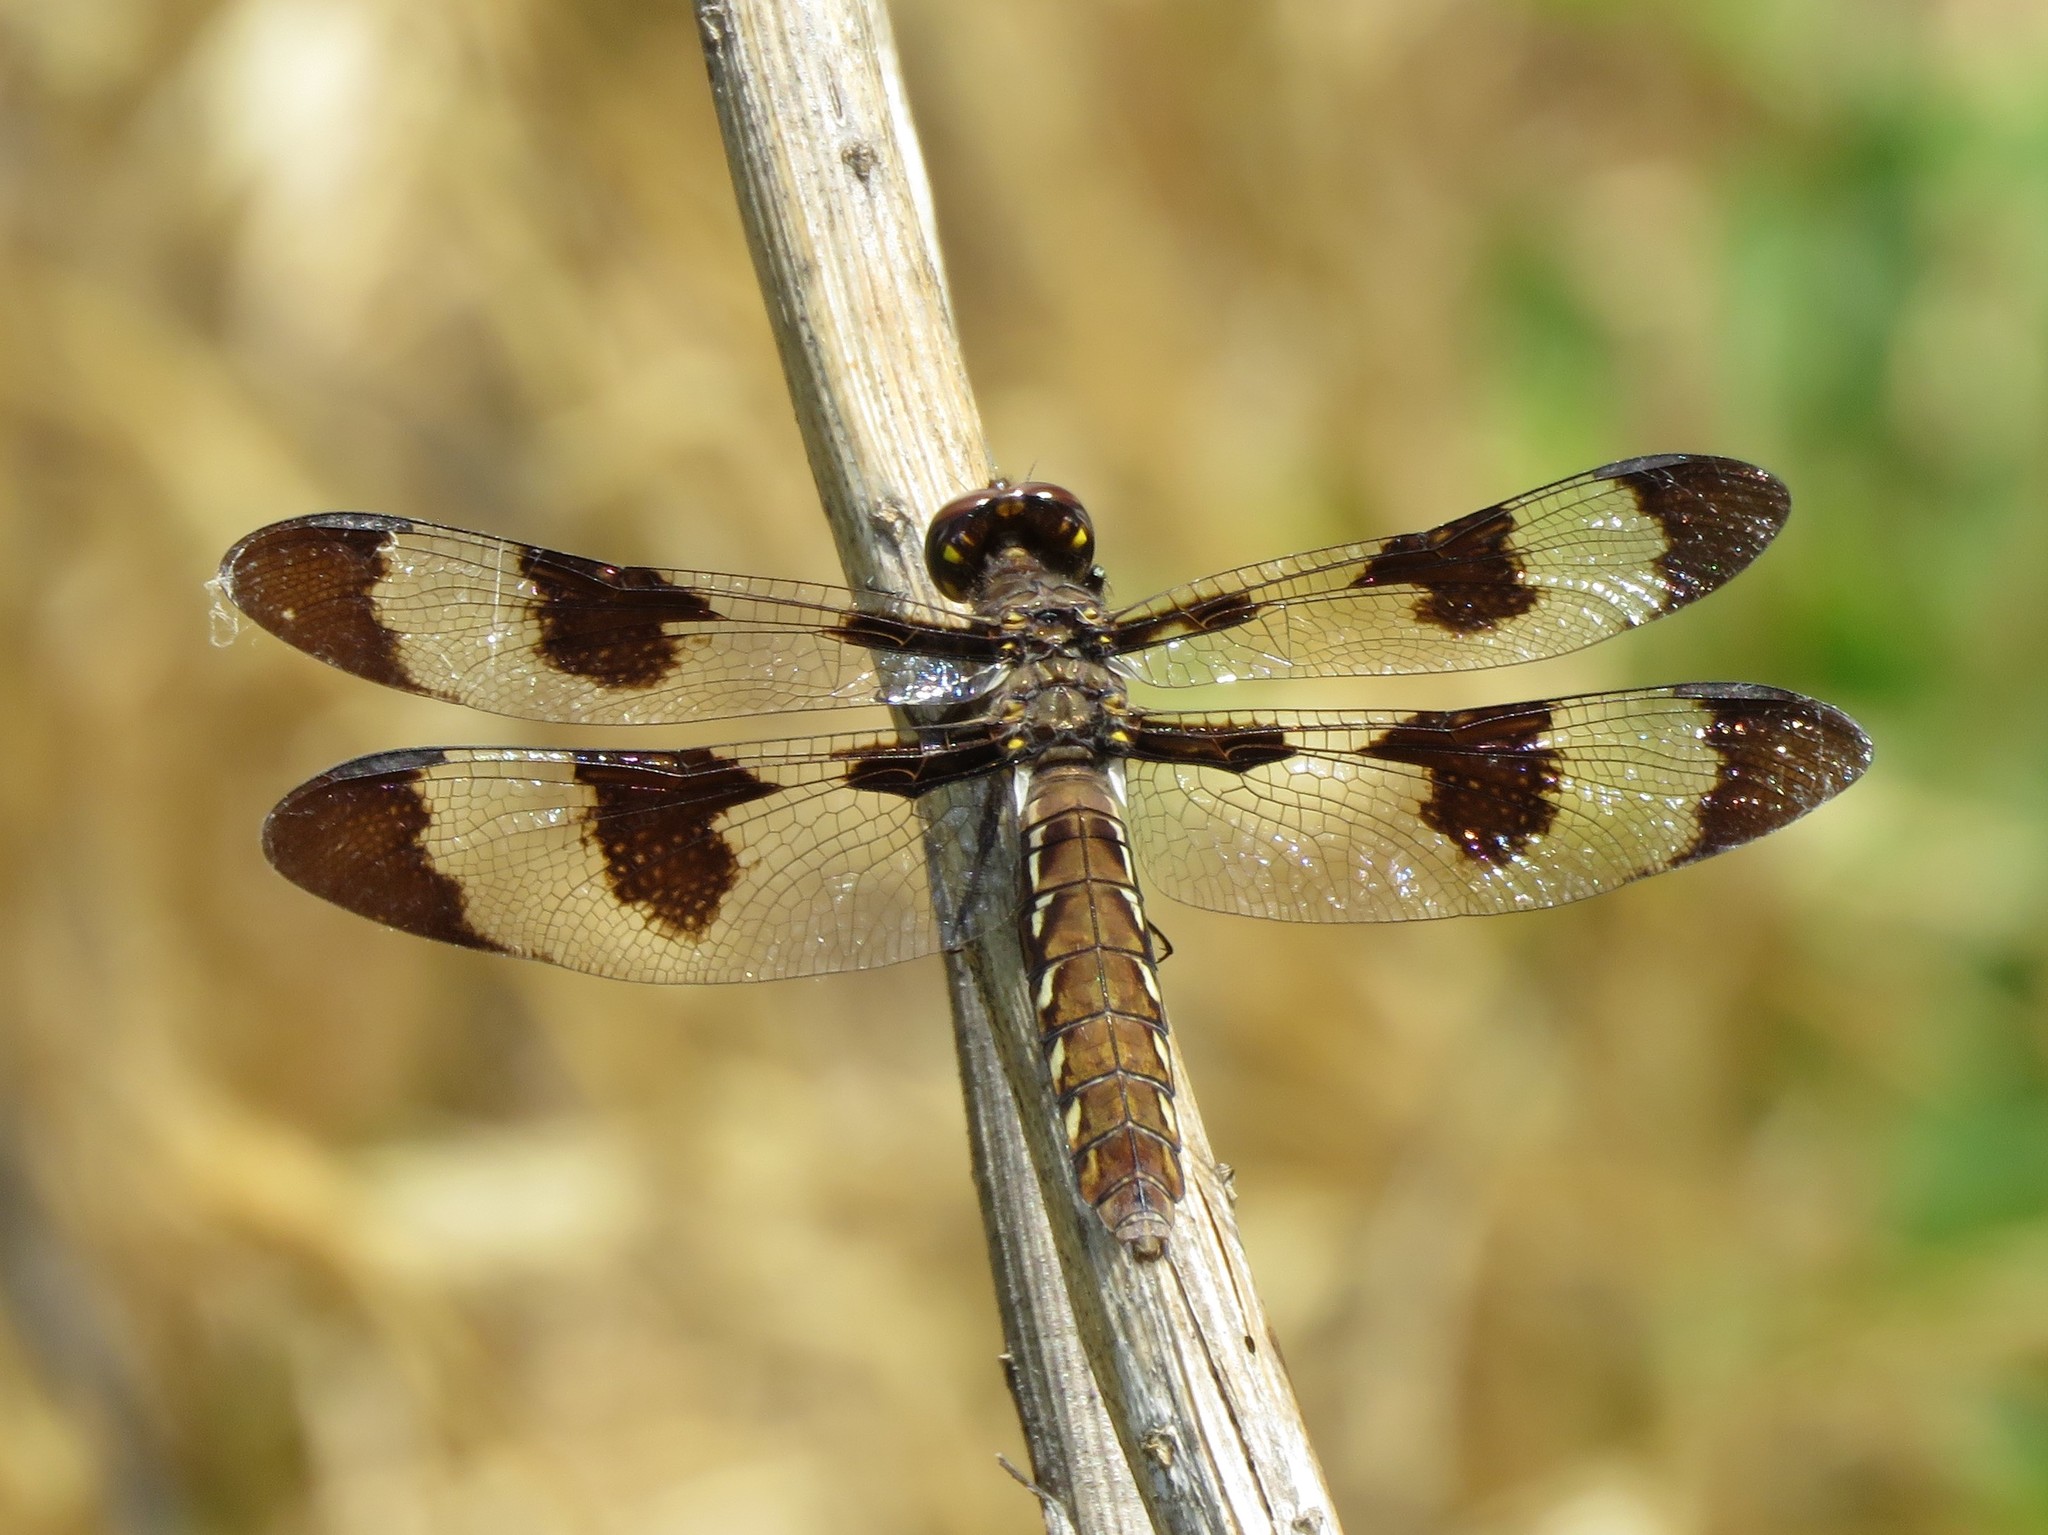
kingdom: Animalia
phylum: Arthropoda
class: Insecta
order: Odonata
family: Libellulidae
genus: Plathemis
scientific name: Plathemis lydia
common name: Common whitetail
